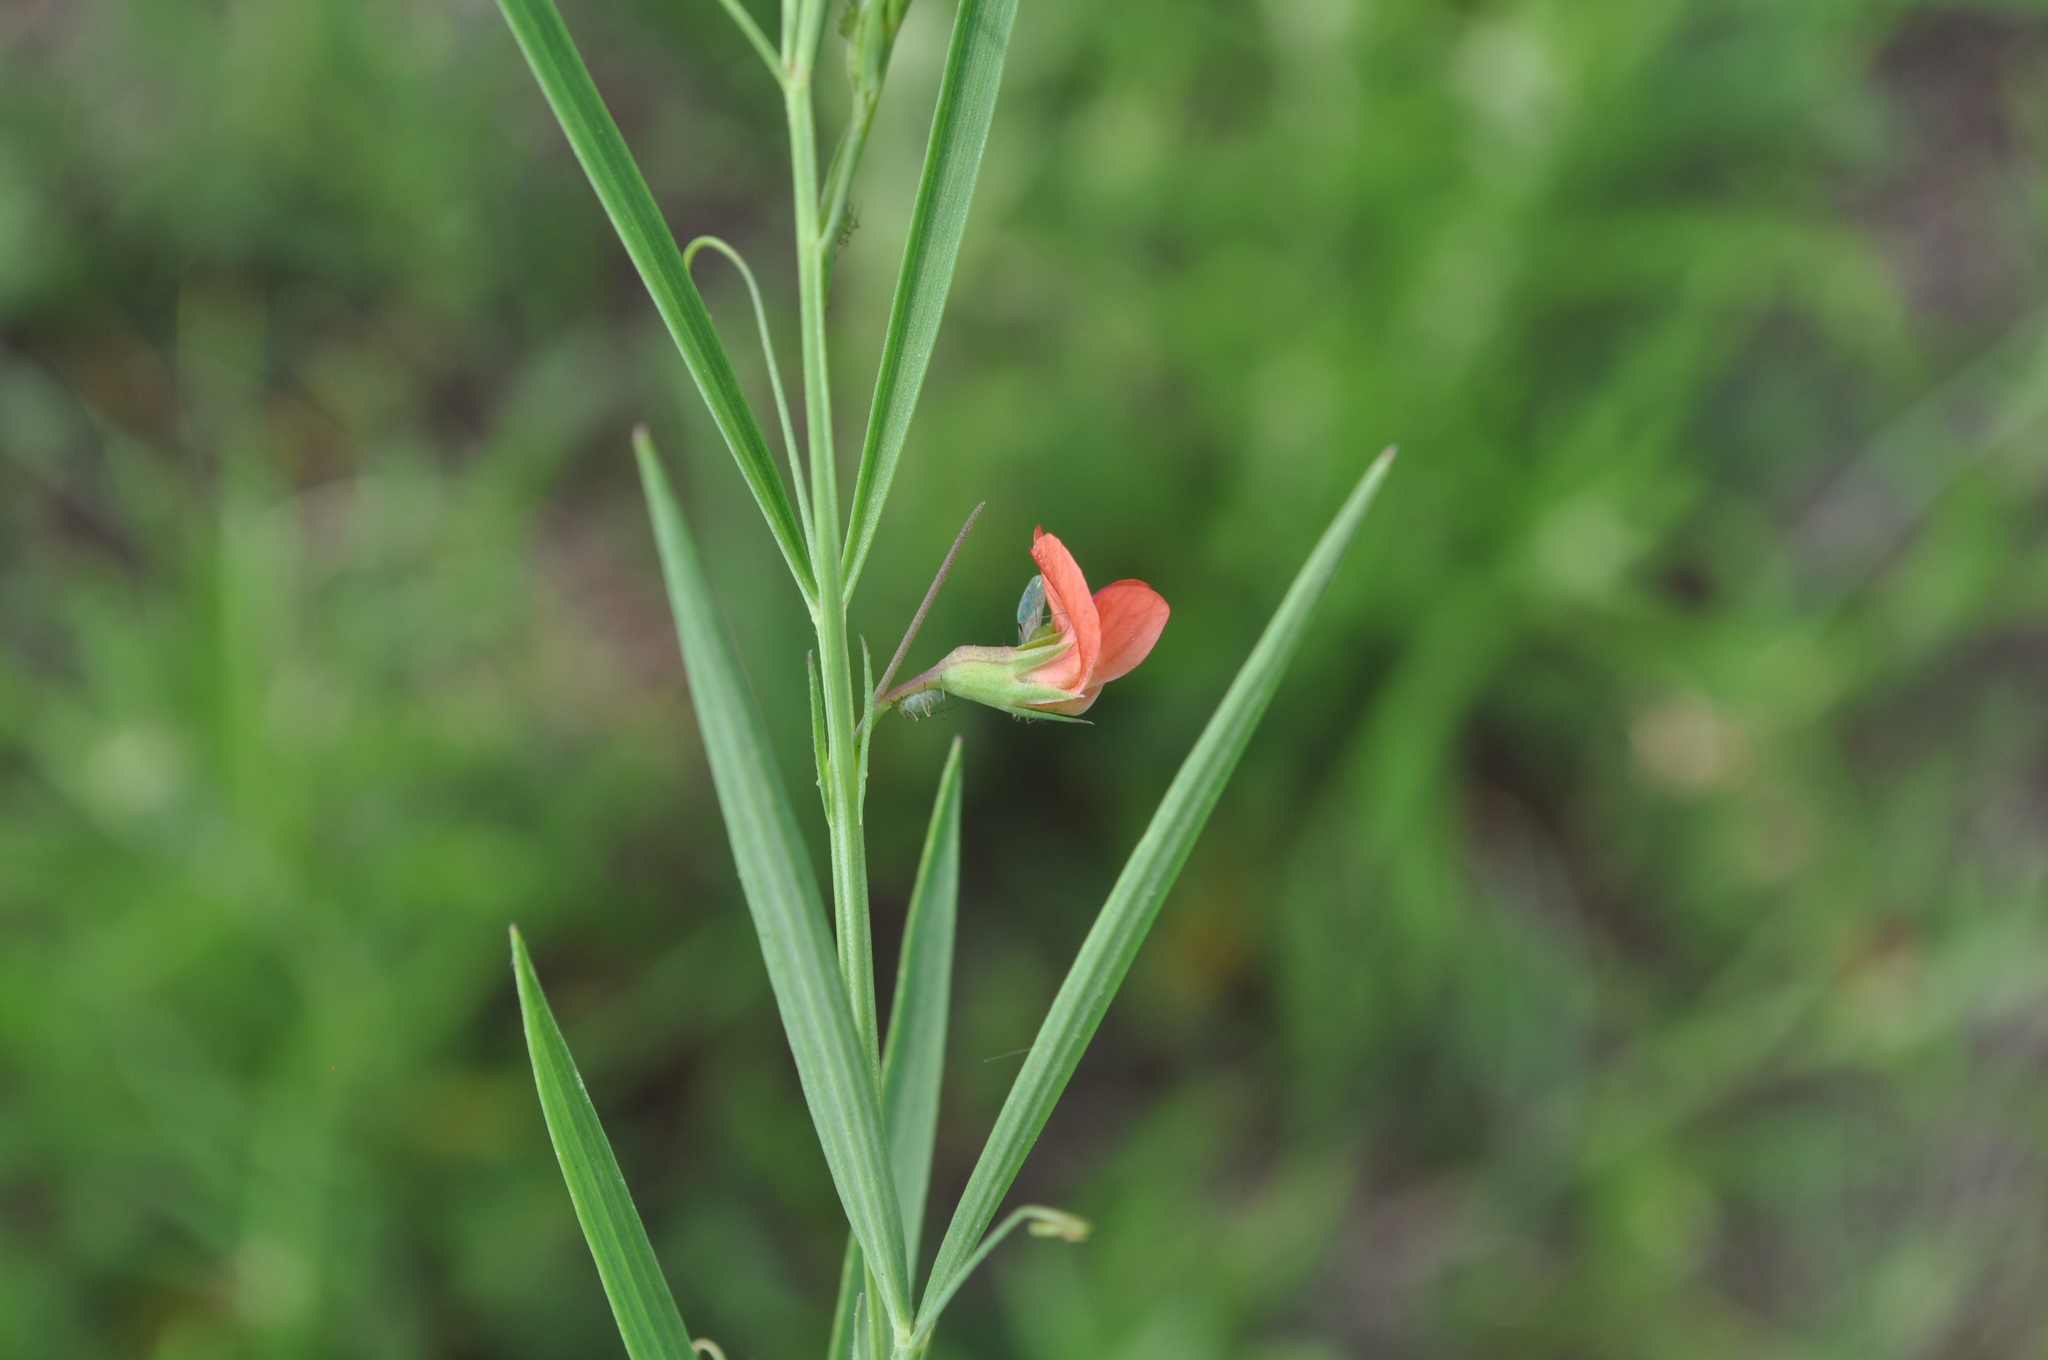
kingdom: Plantae
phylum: Tracheophyta
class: Magnoliopsida
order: Fabales
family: Fabaceae
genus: Lathyrus
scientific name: Lathyrus sphaericus
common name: Grass pea
